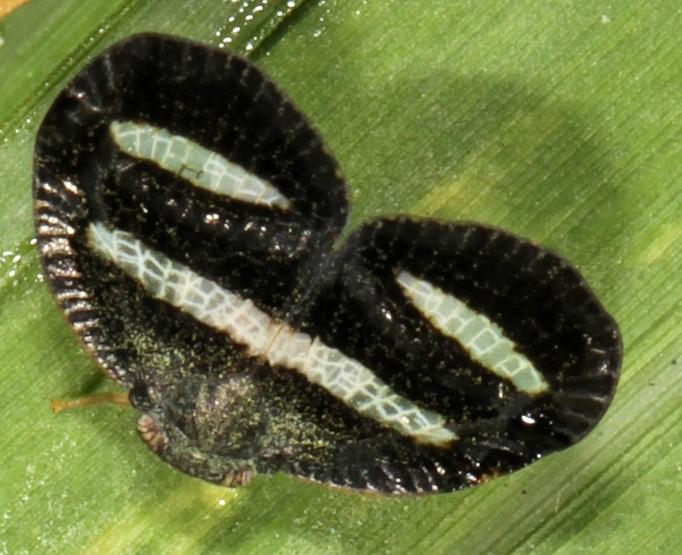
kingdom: Animalia
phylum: Arthropoda
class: Insecta
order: Hemiptera
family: Ricaniidae
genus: Mulvia
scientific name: Mulvia albizona
